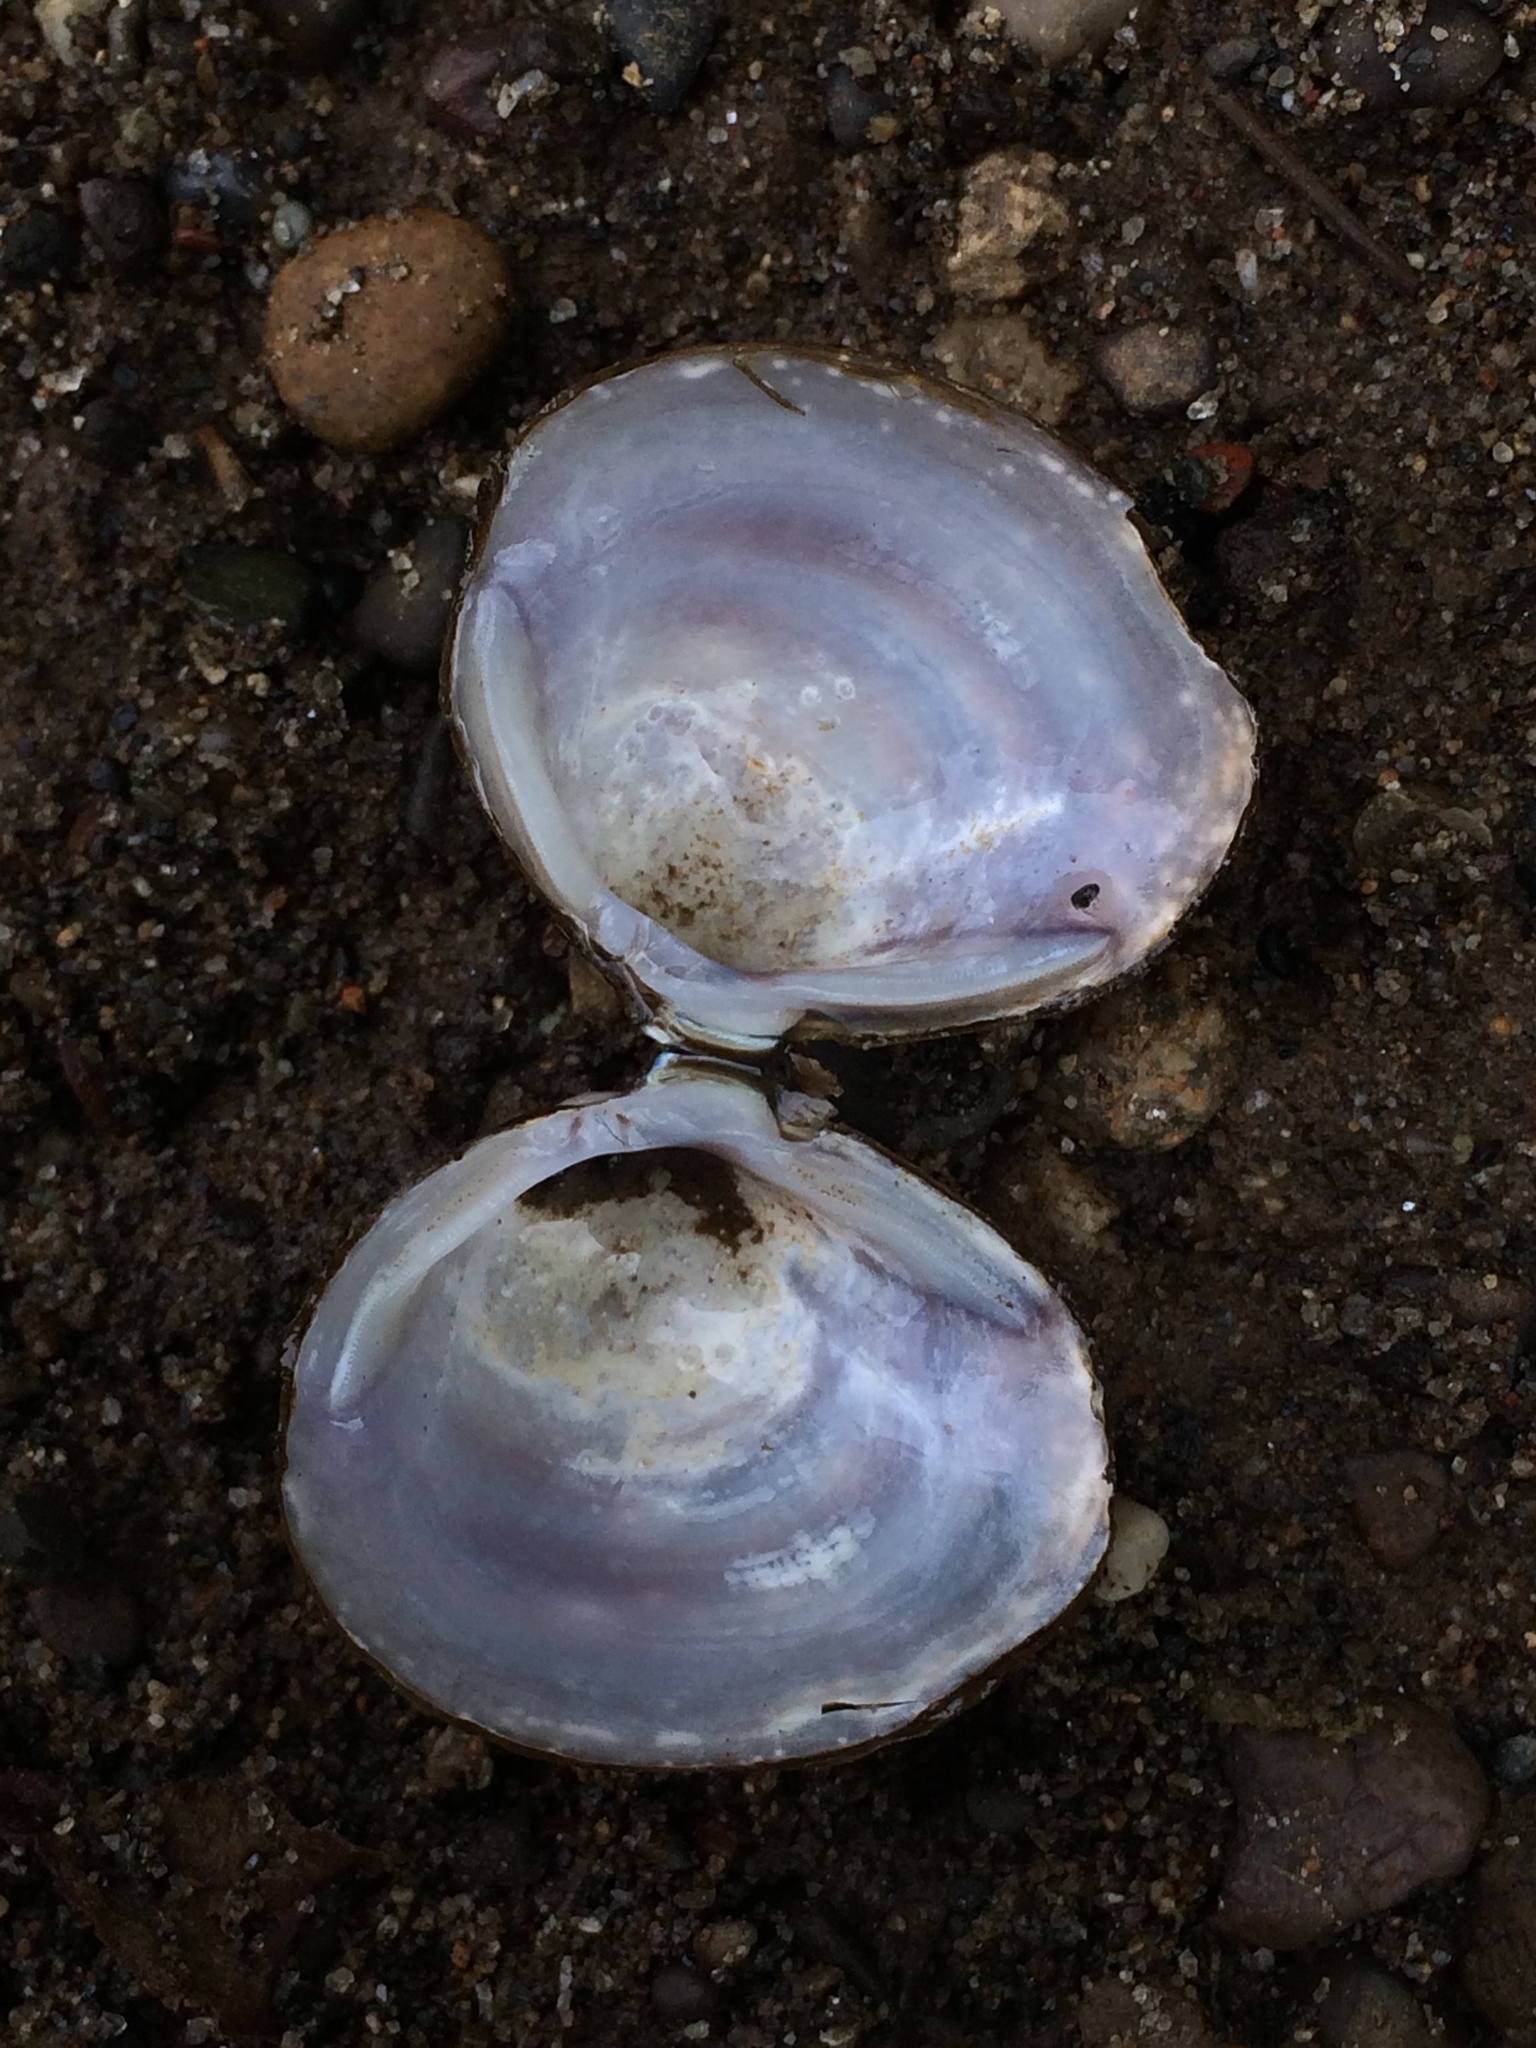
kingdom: Animalia
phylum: Mollusca
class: Bivalvia
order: Venerida
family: Cyrenidae
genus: Corbicula
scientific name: Corbicula fluminea
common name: Asian clam
